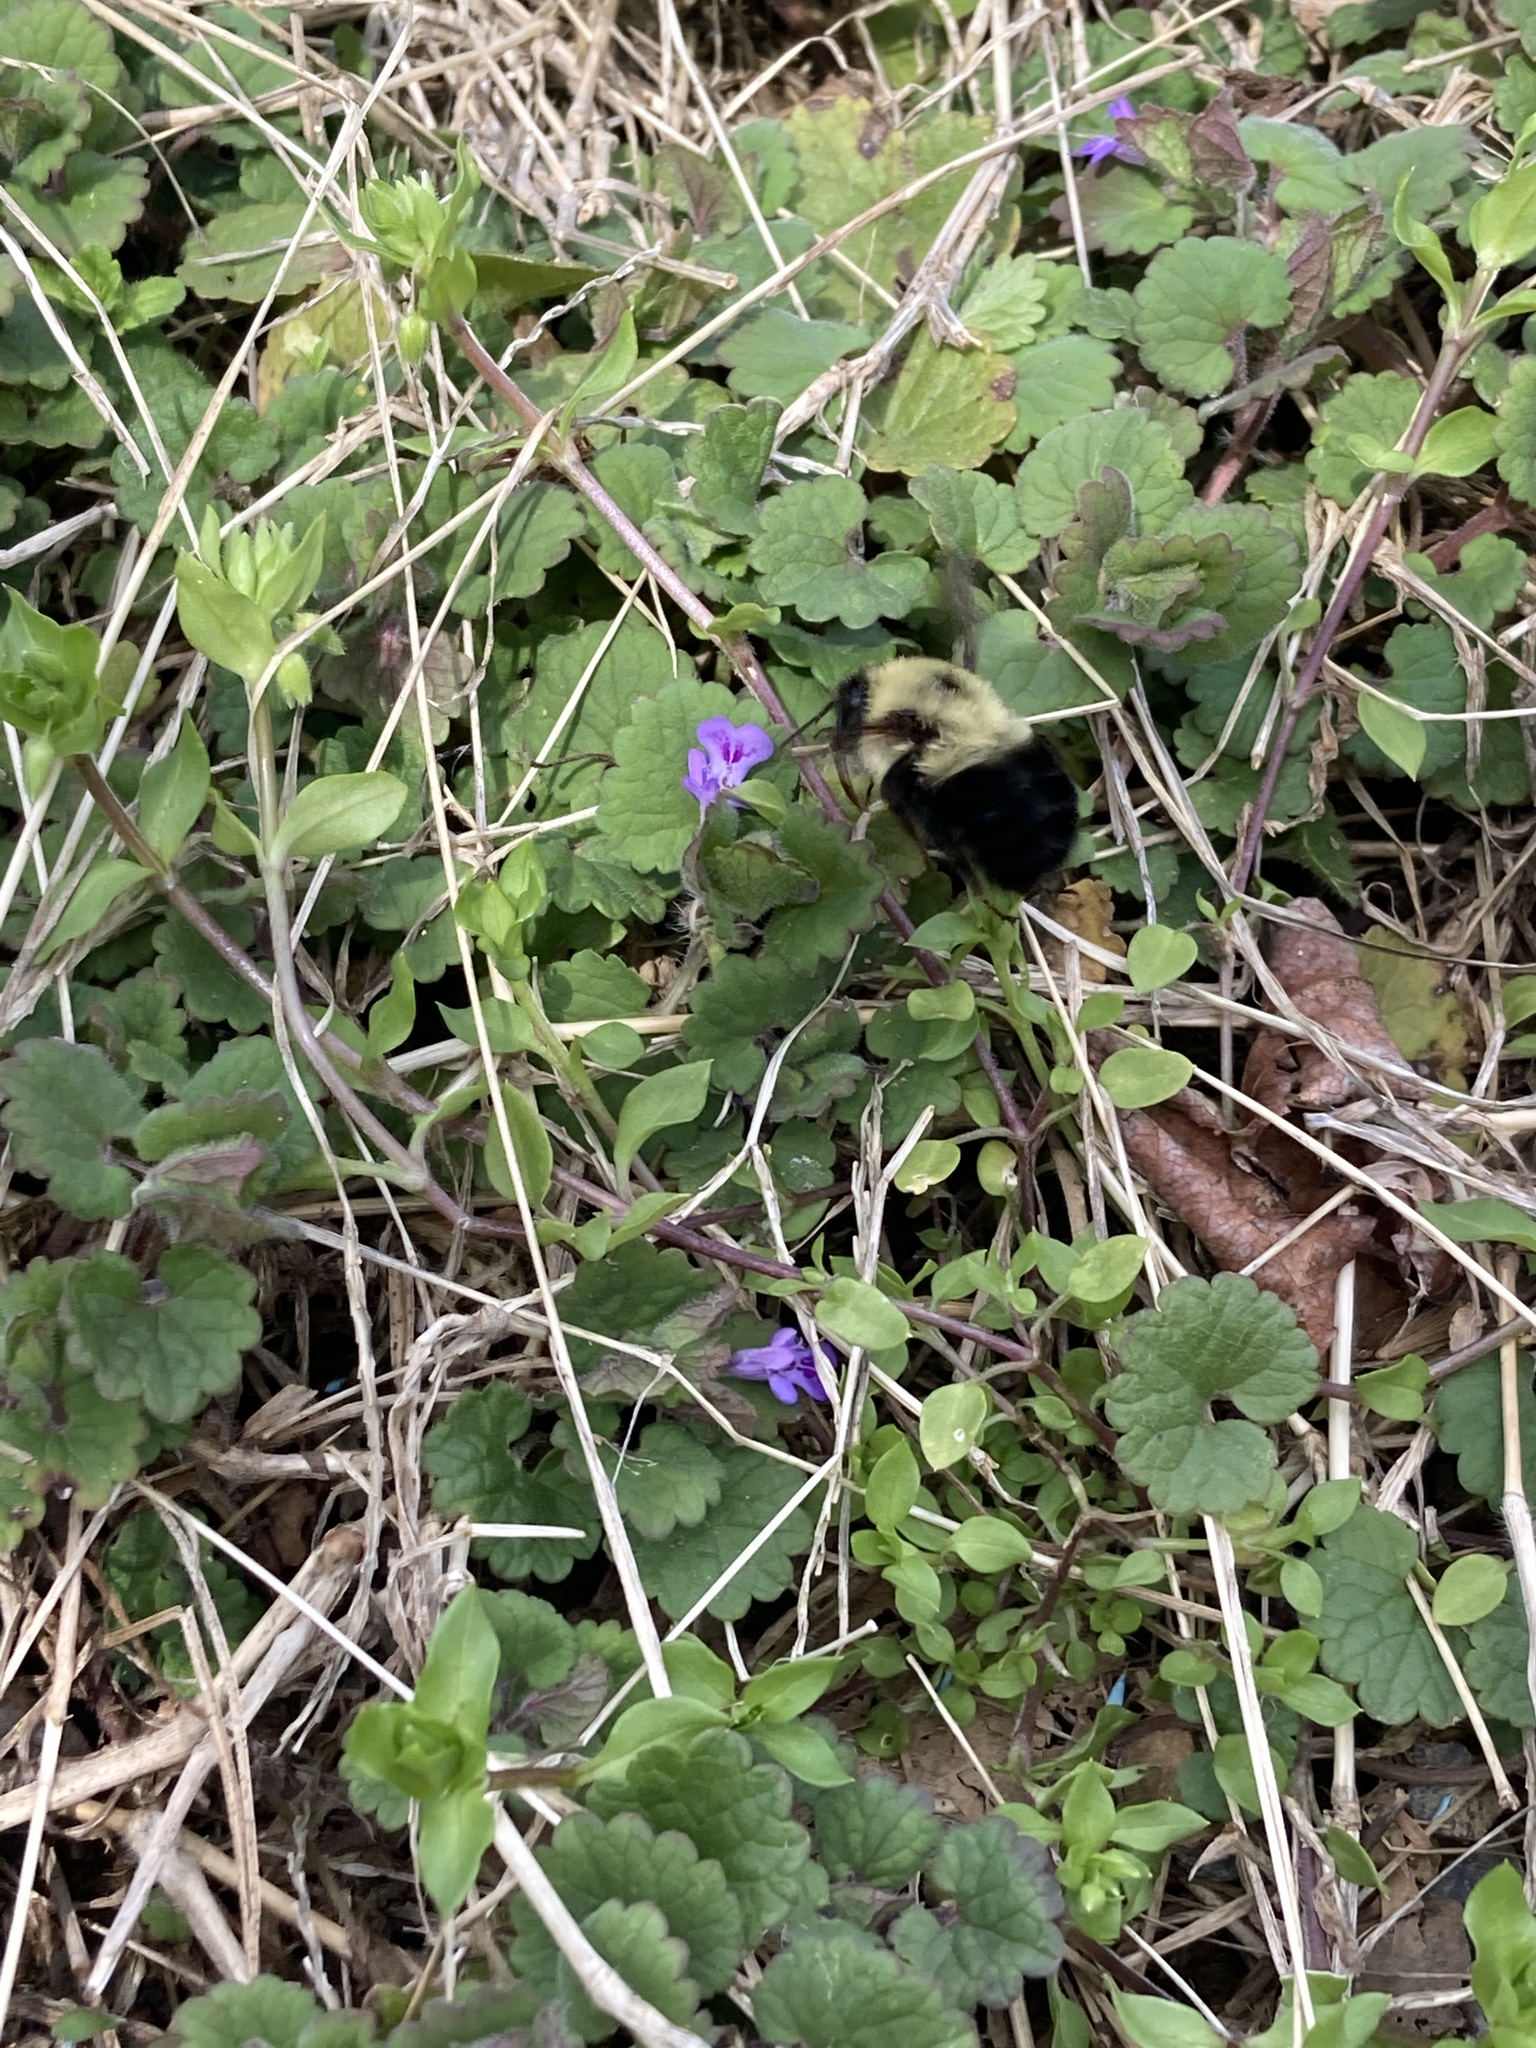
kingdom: Animalia
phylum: Arthropoda
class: Insecta
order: Hymenoptera
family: Apidae
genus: Bombus
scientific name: Bombus bimaculatus
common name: Two-spotted bumble bee
